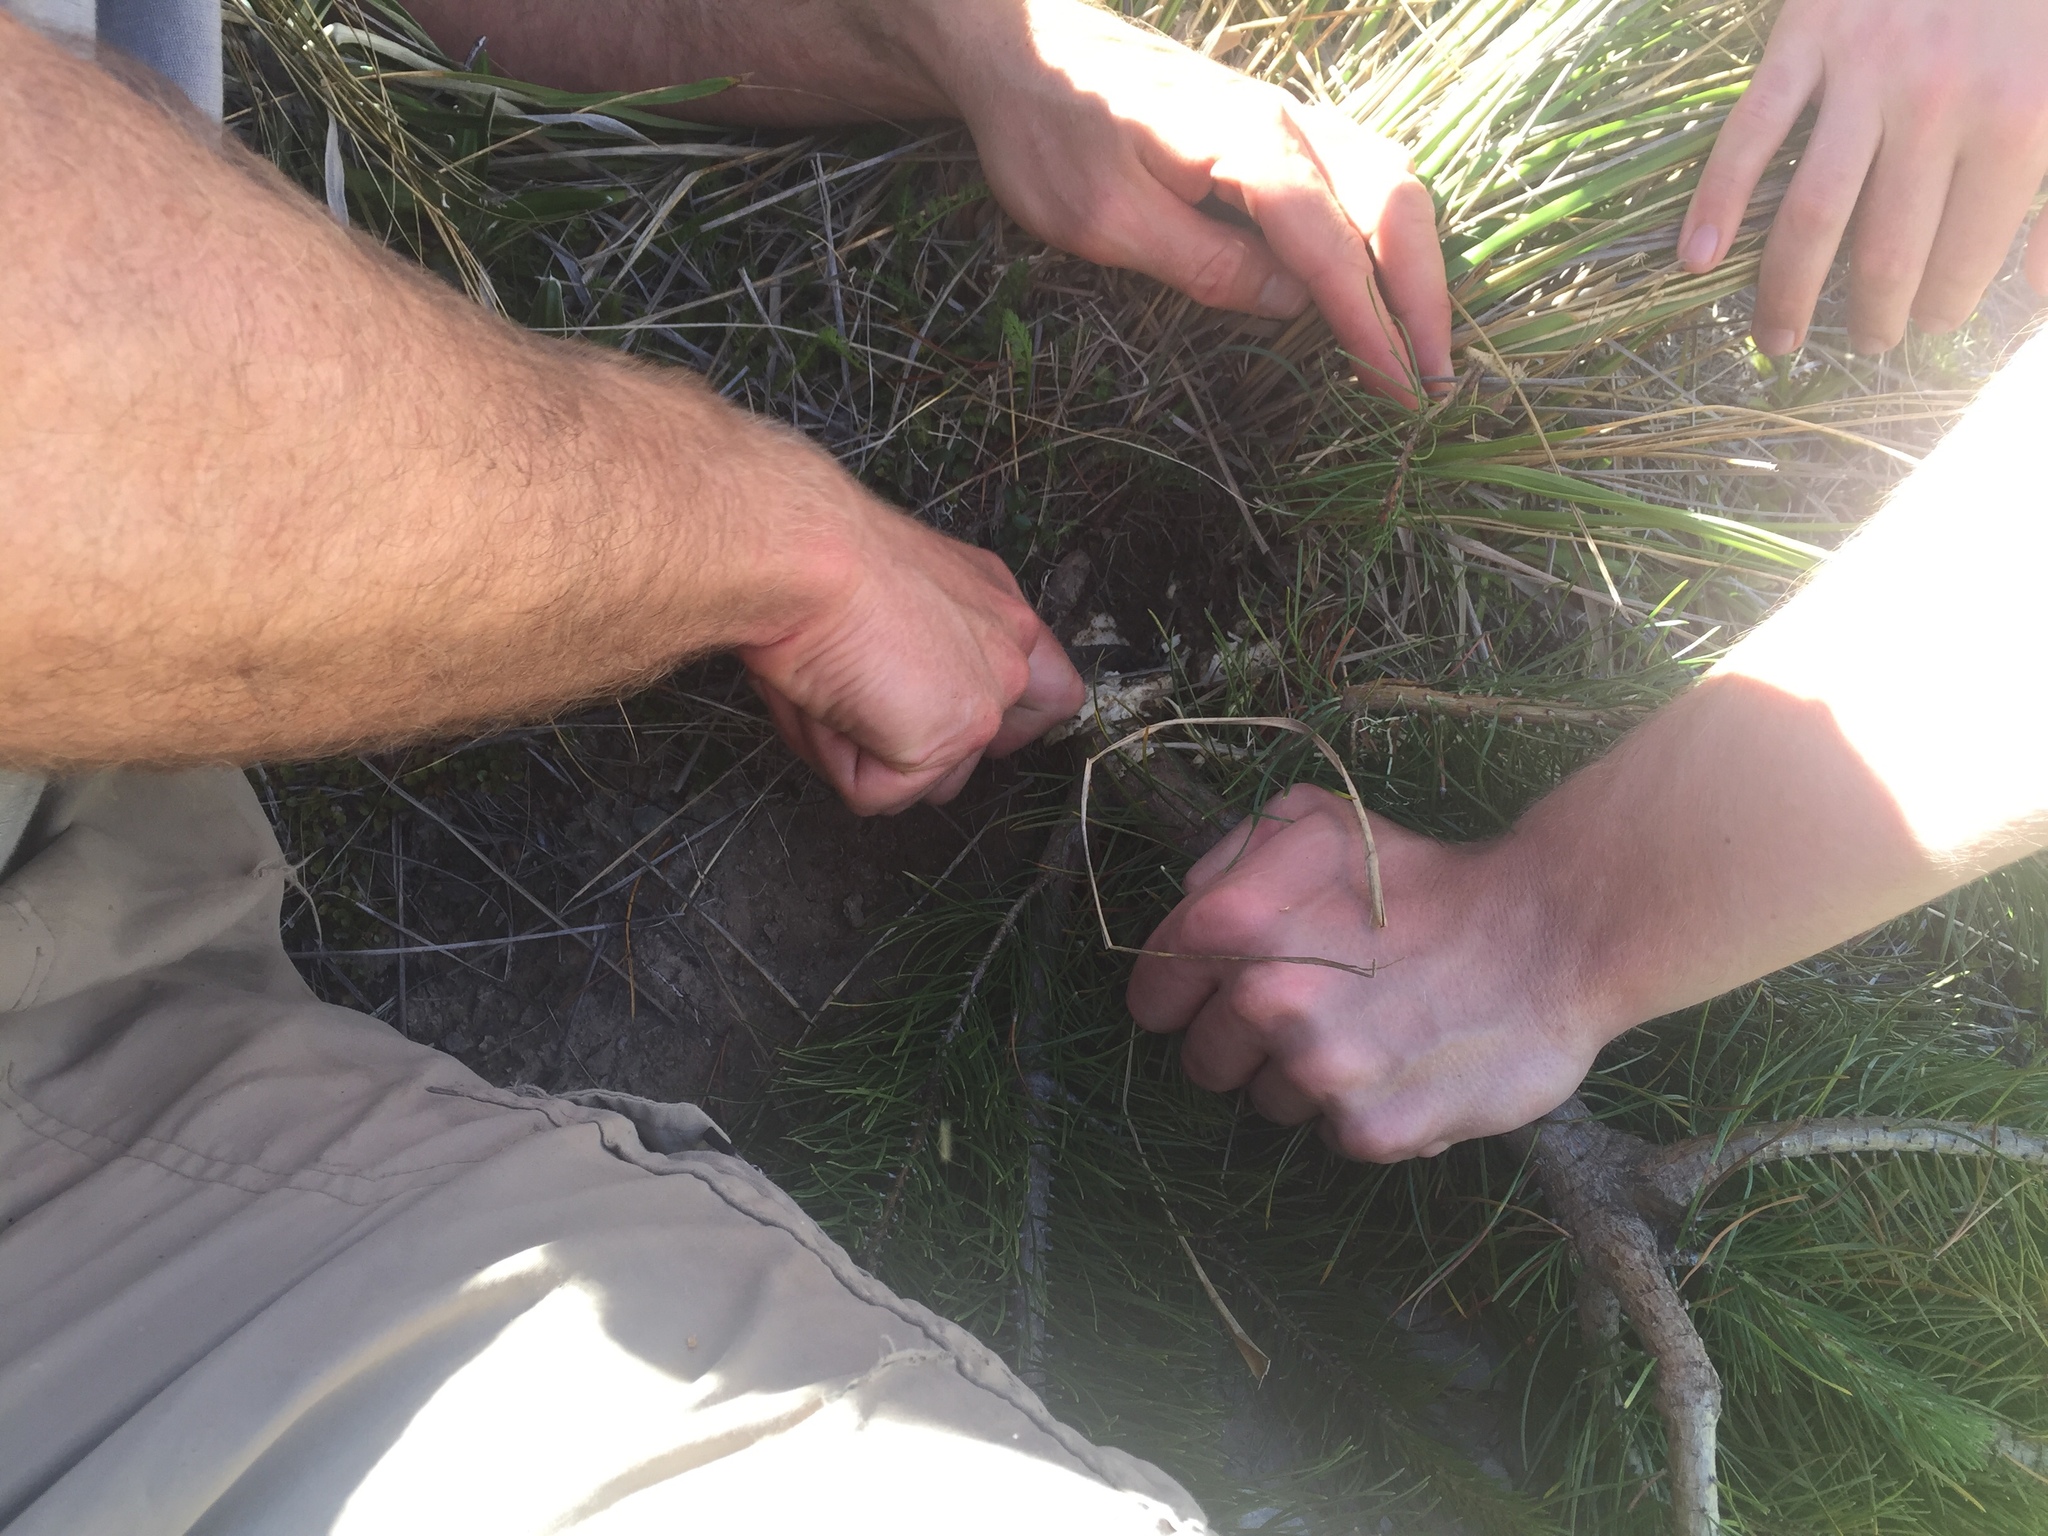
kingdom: Plantae
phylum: Tracheophyta
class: Pinopsida
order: Pinales
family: Pinaceae
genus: Pinus
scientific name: Pinus contorta
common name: Lodgepole pine
